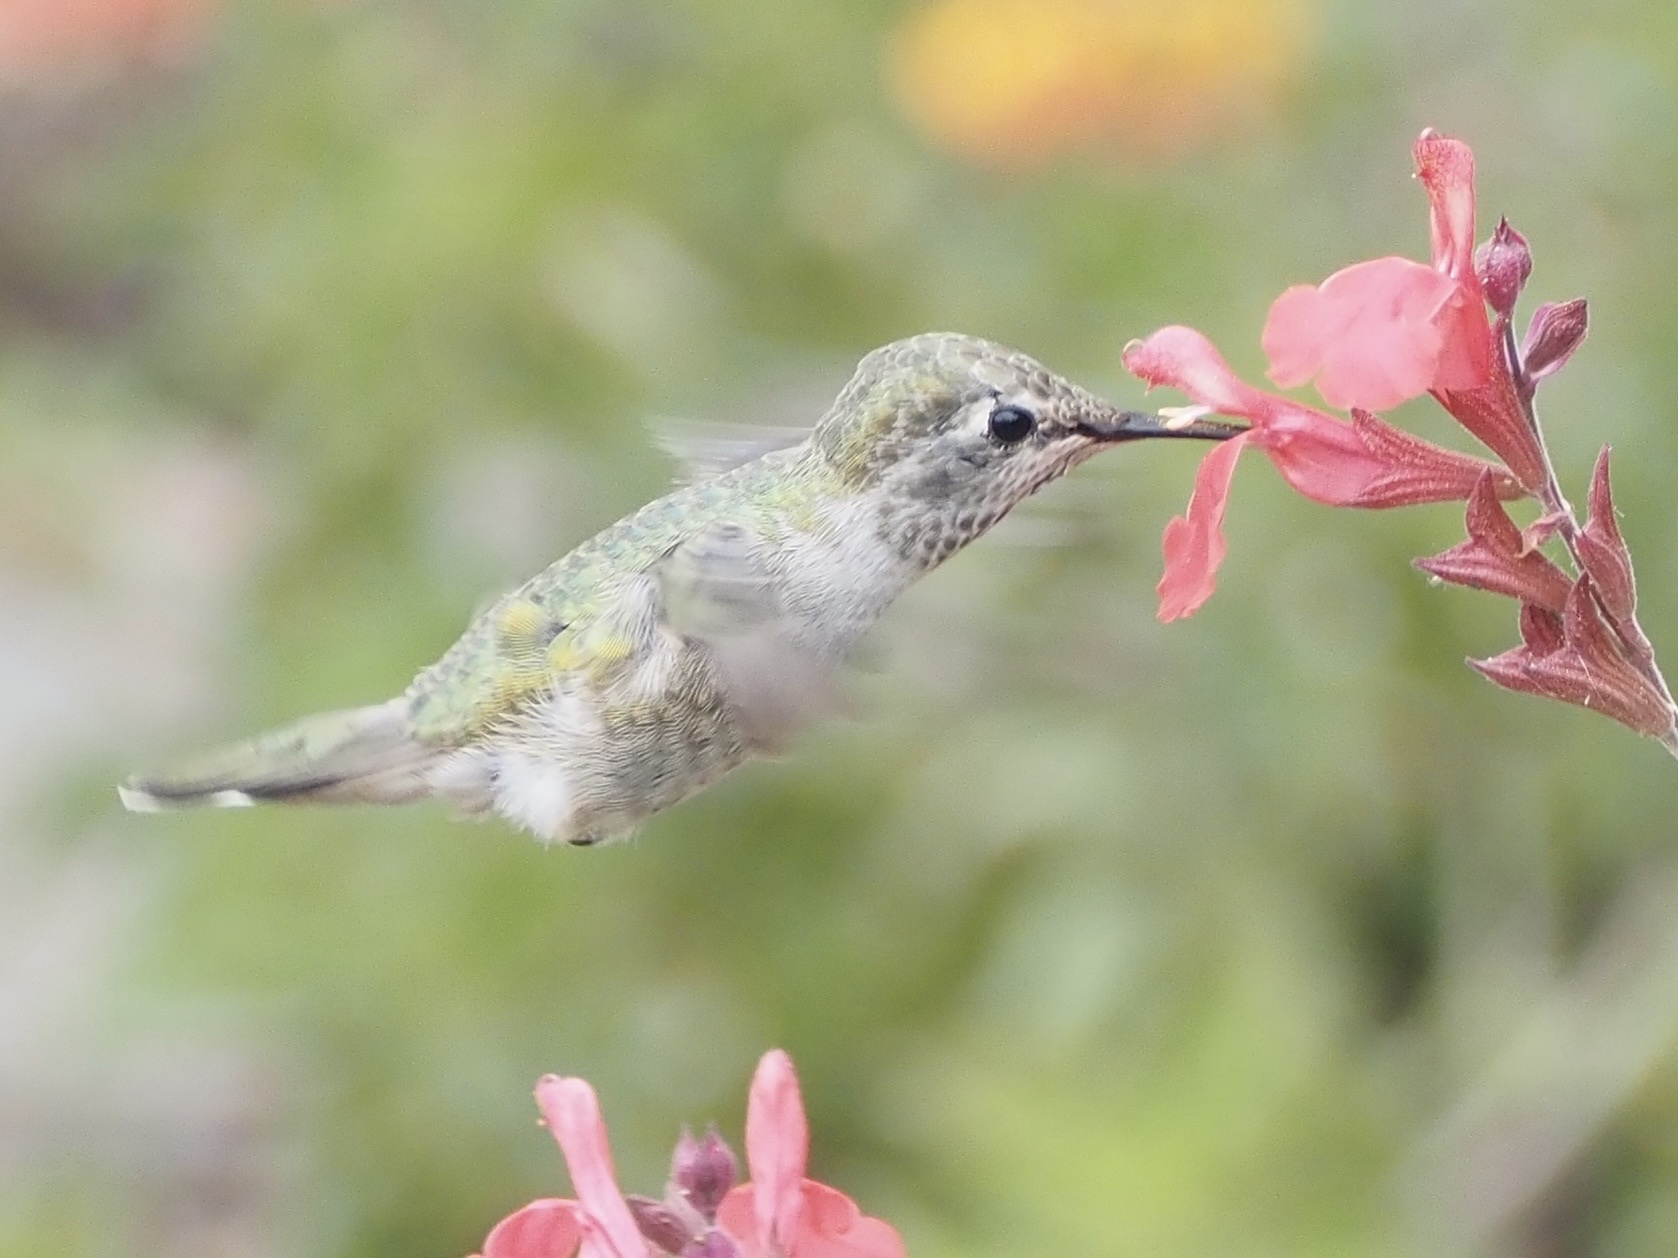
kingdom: Animalia
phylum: Chordata
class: Aves
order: Apodiformes
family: Trochilidae
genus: Calypte
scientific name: Calypte anna
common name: Anna's hummingbird
